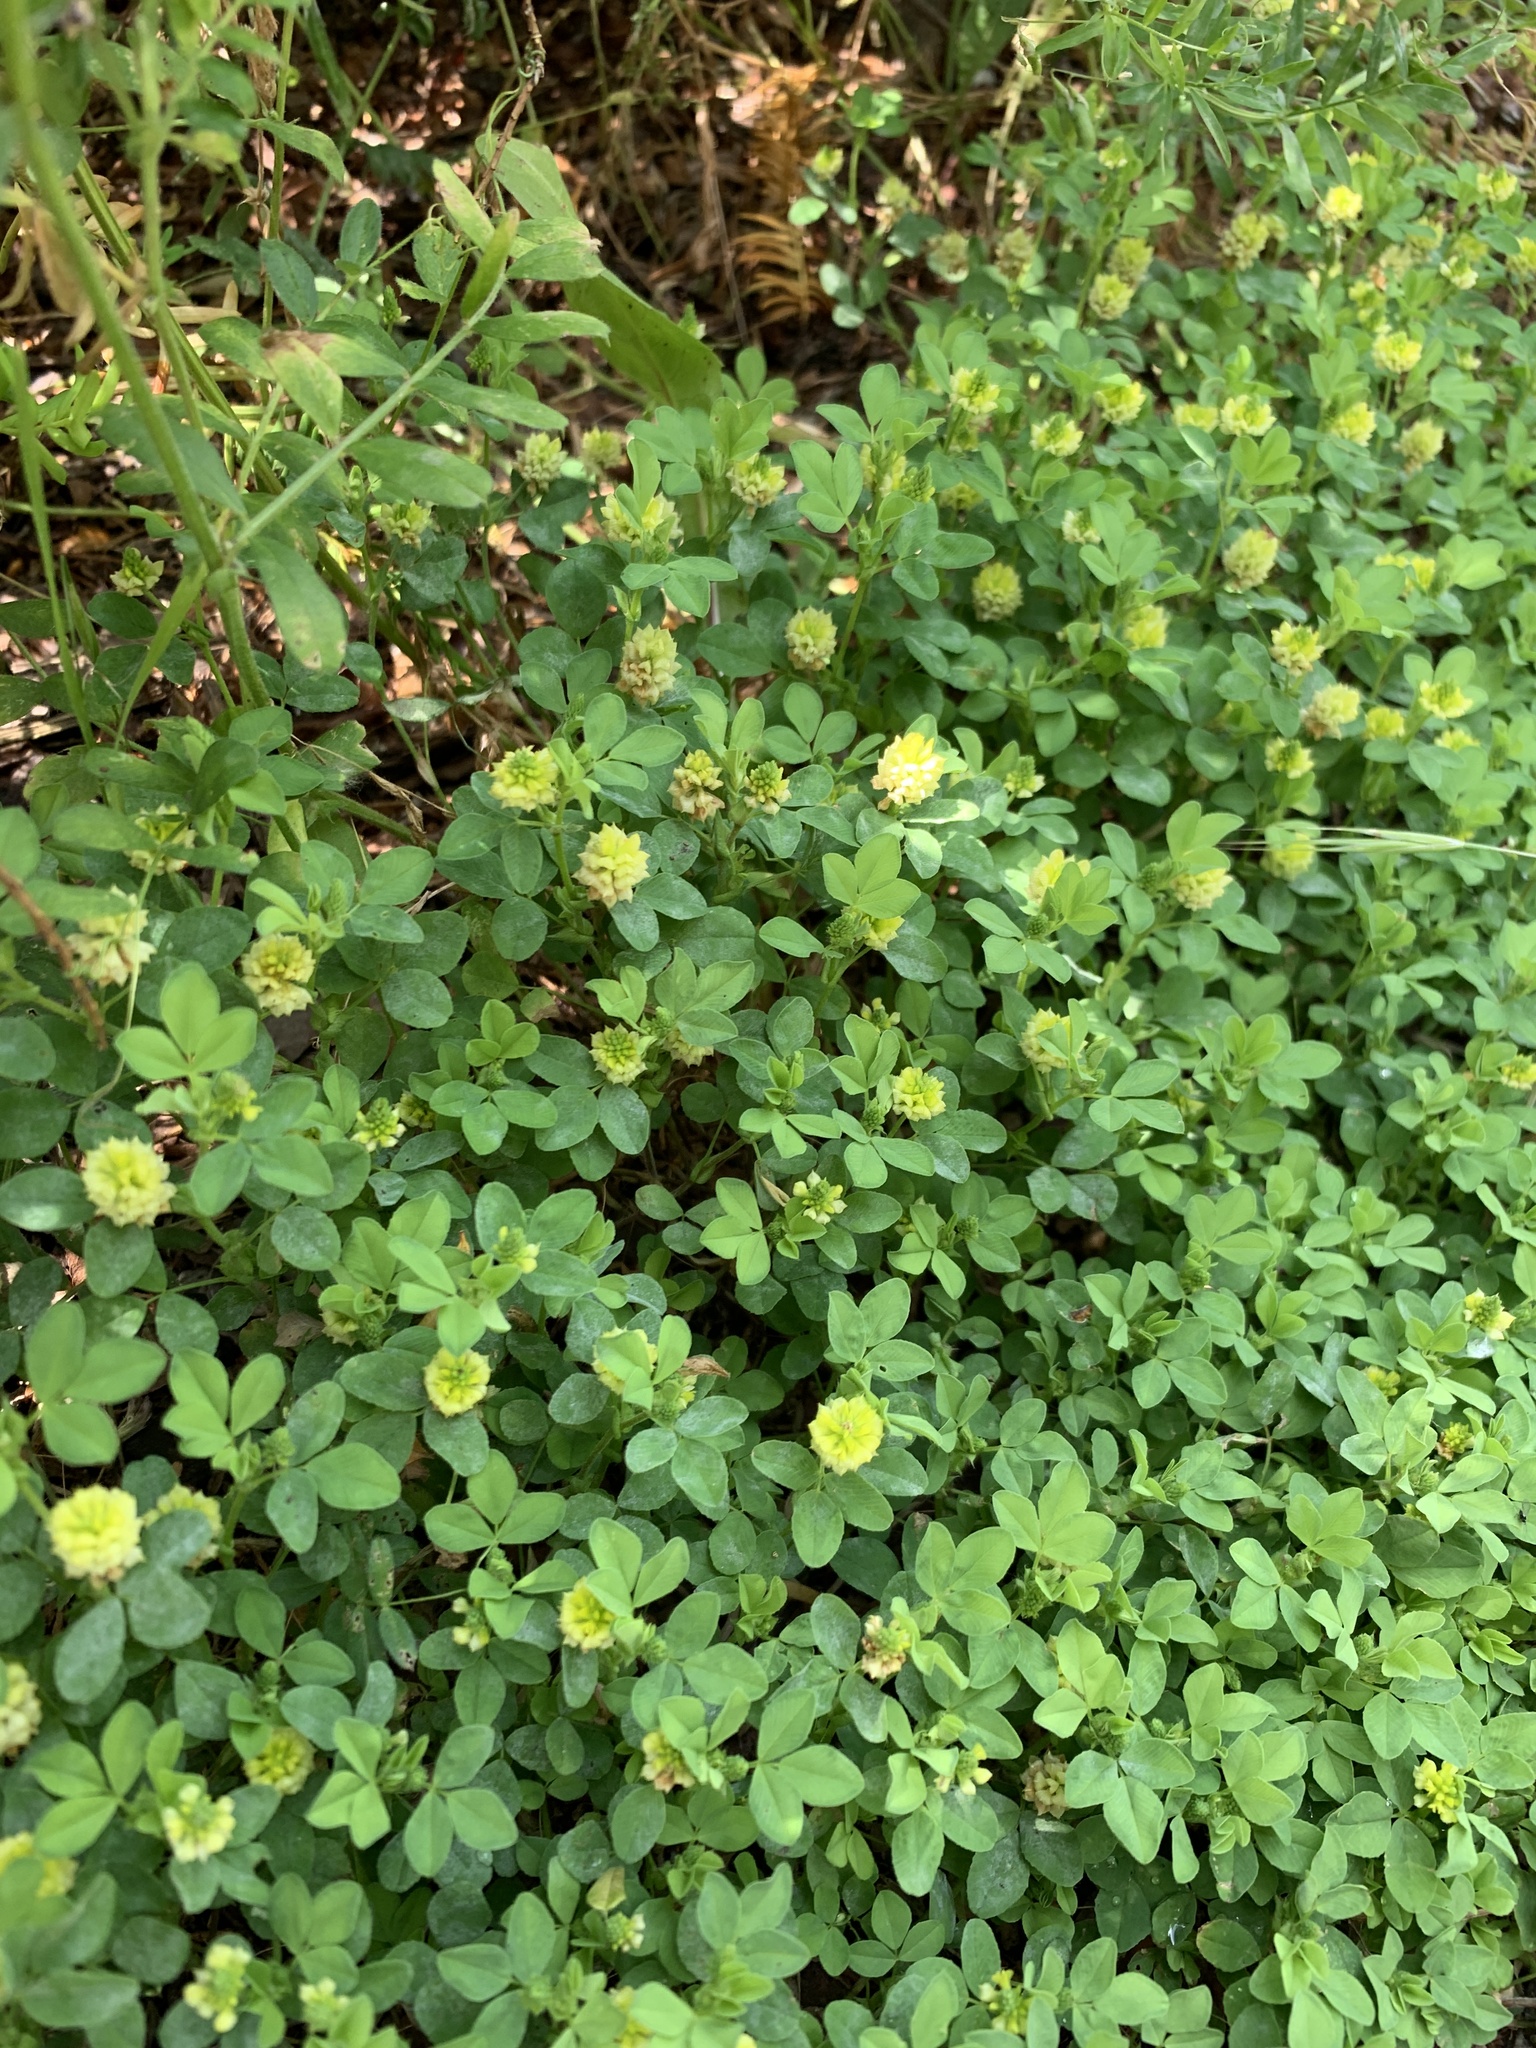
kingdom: Plantae
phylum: Tracheophyta
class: Magnoliopsida
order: Fabales
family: Fabaceae
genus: Trifolium
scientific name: Trifolium campestre
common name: Field clover
